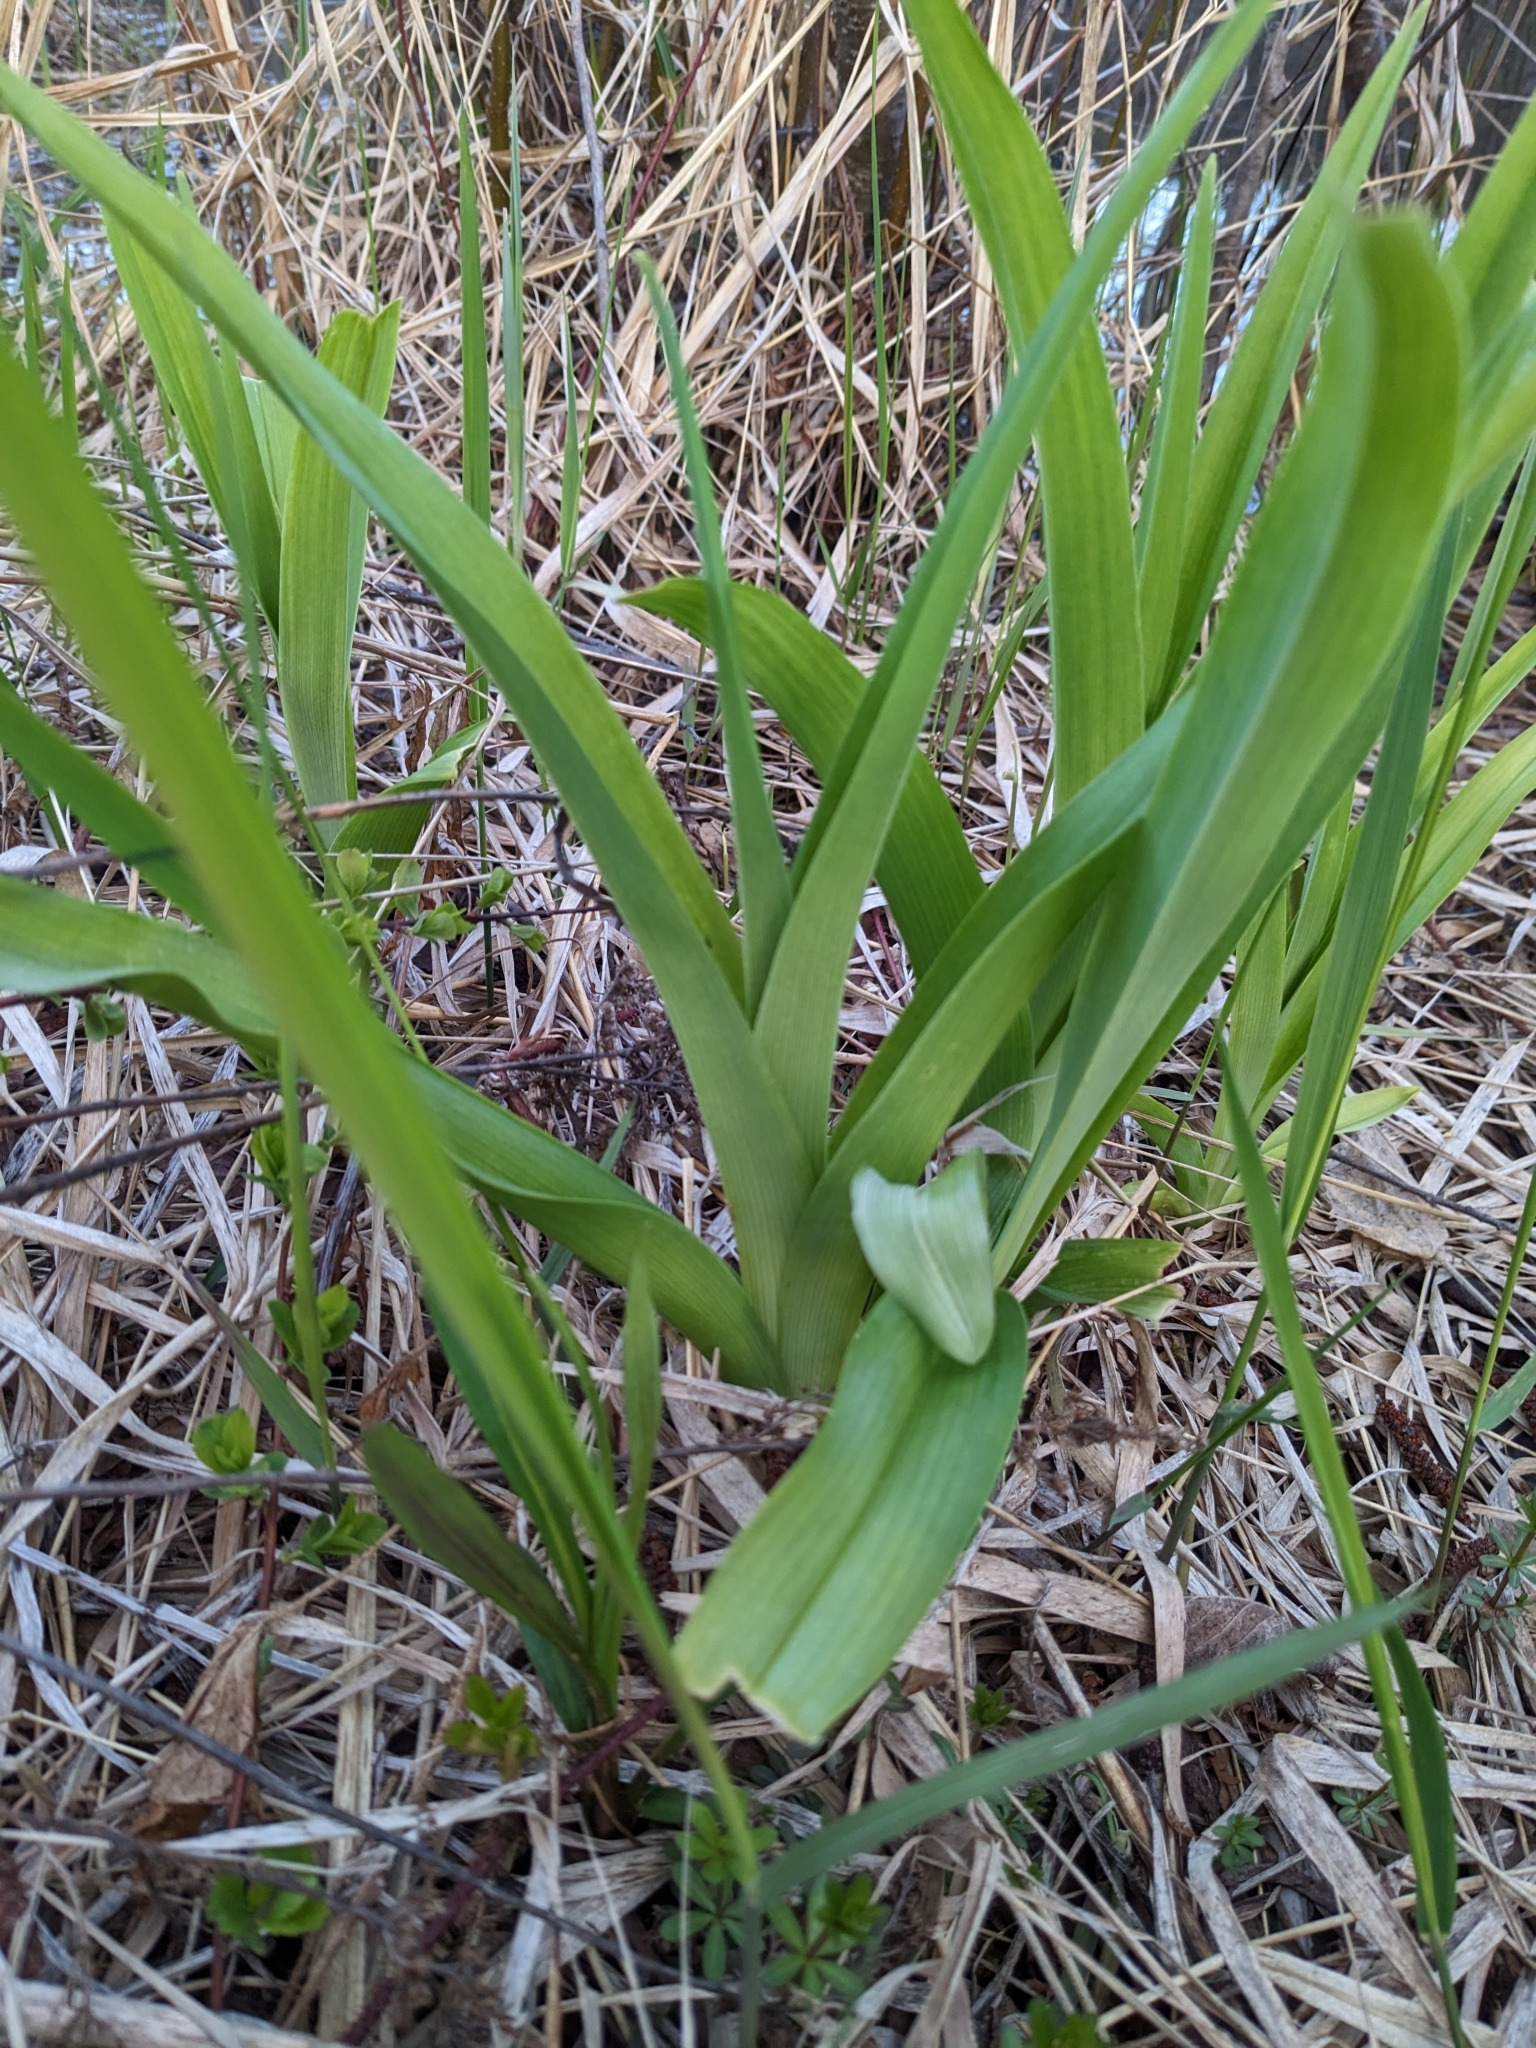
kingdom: Plantae
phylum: Tracheophyta
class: Liliopsida
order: Asparagales
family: Asphodelaceae
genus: Hemerocallis
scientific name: Hemerocallis fulva
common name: Orange day-lily
